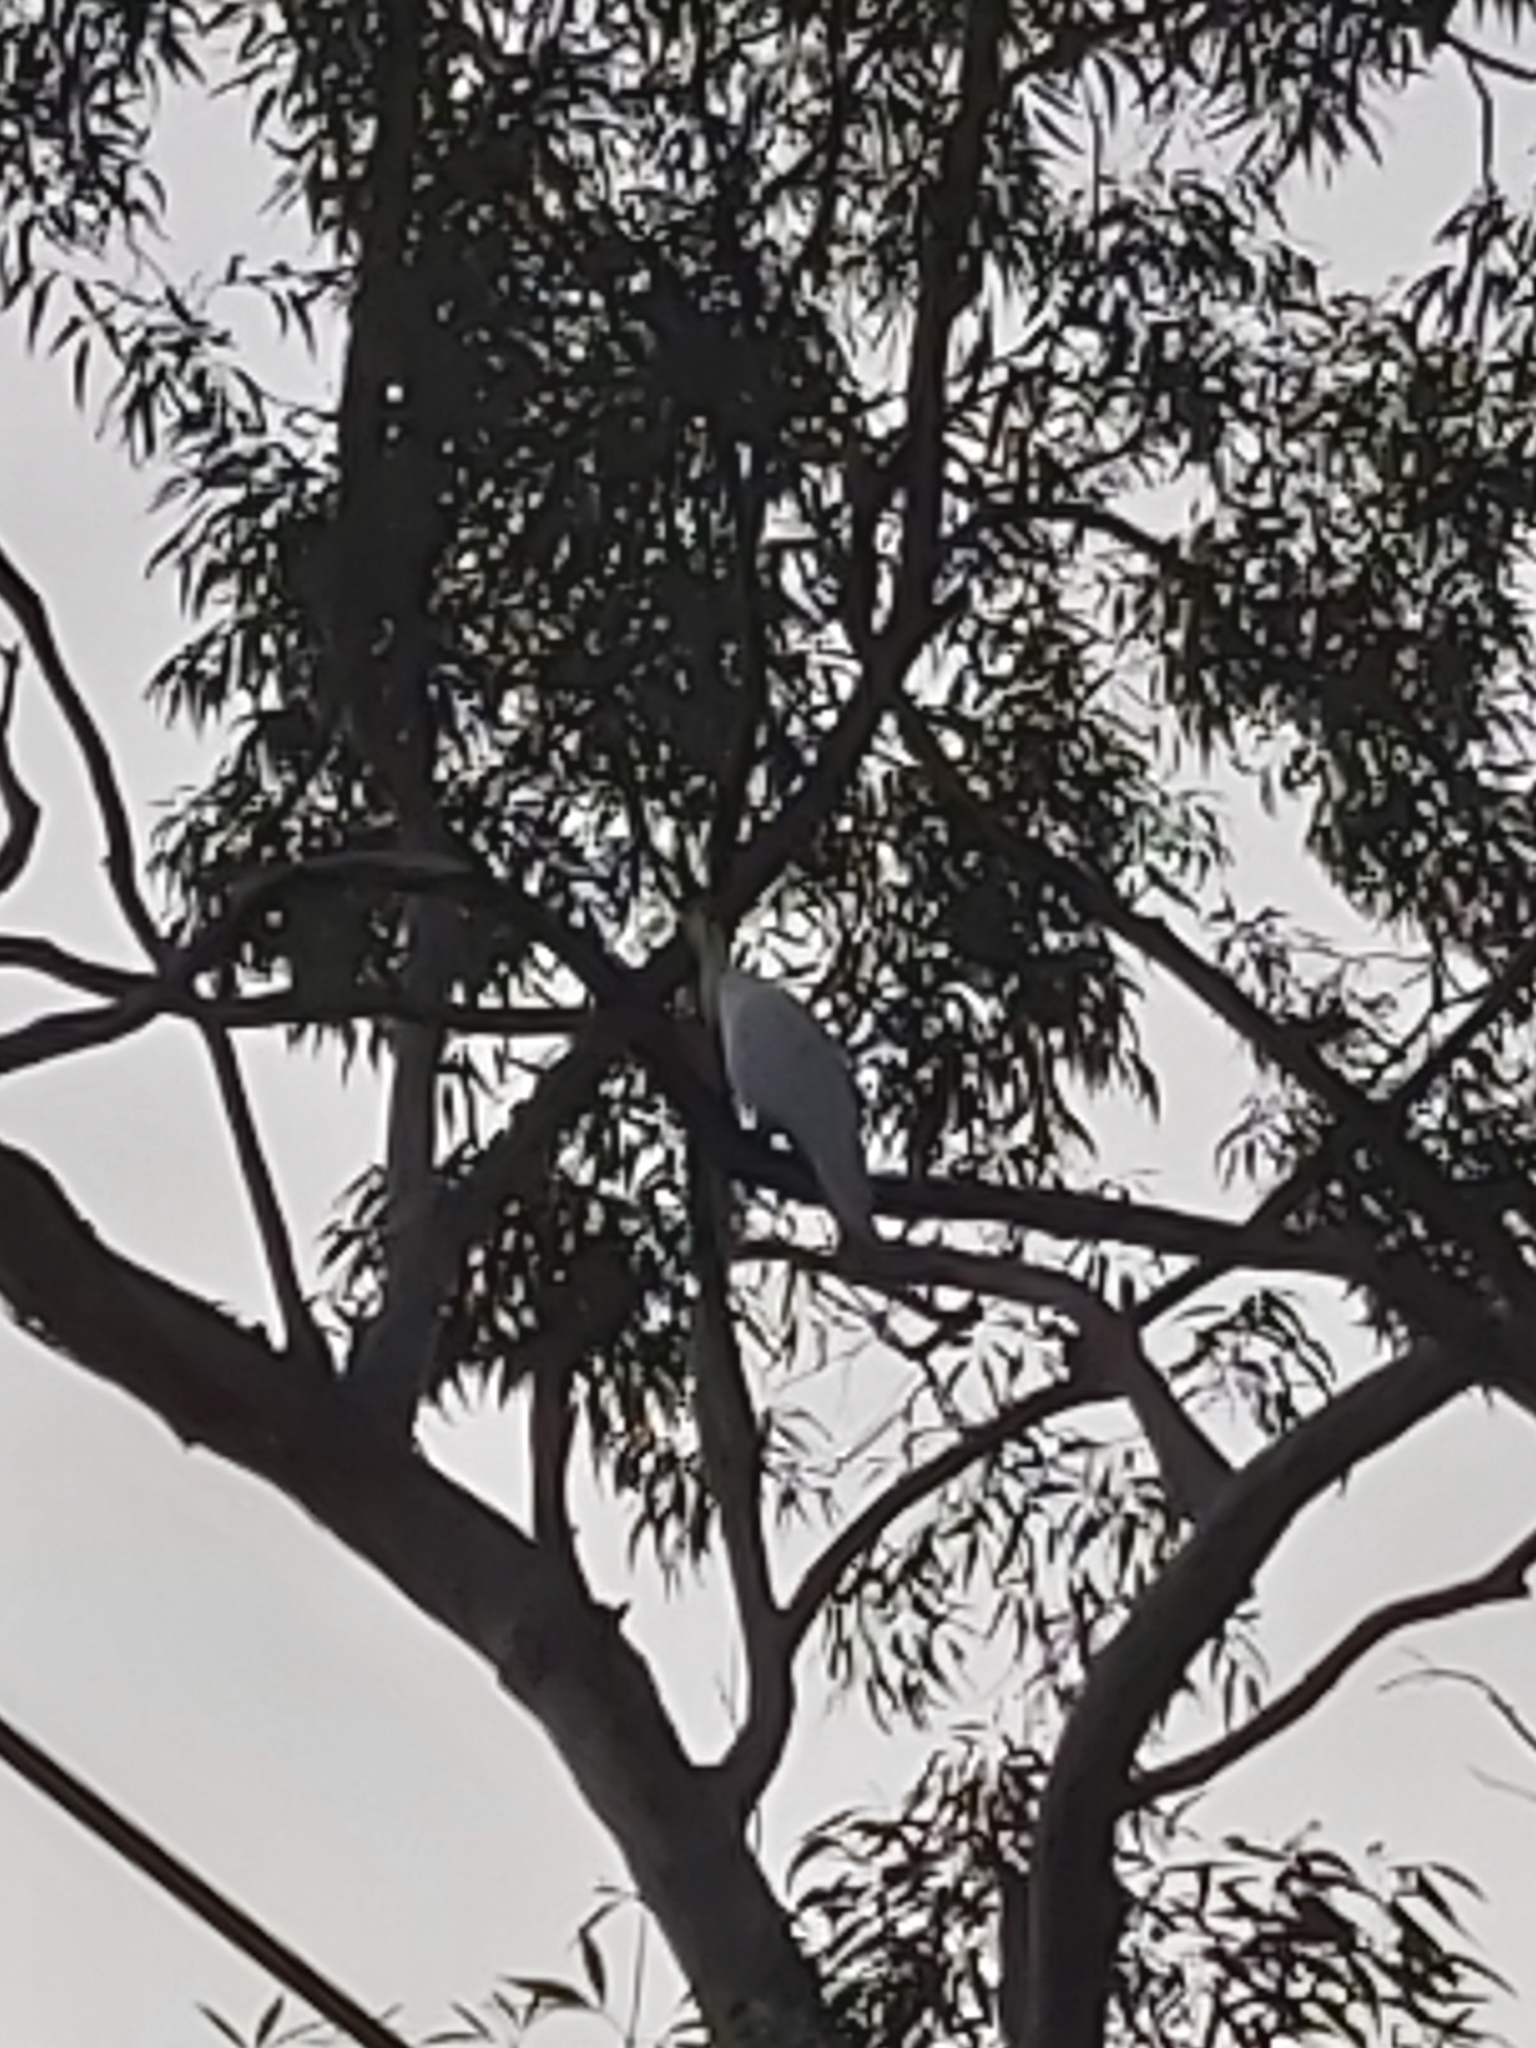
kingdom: Animalia
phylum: Chordata
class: Aves
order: Psittaciformes
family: Psittacidae
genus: Cacatua
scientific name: Cacatua galerita
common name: Sulphur-crested cockatoo
